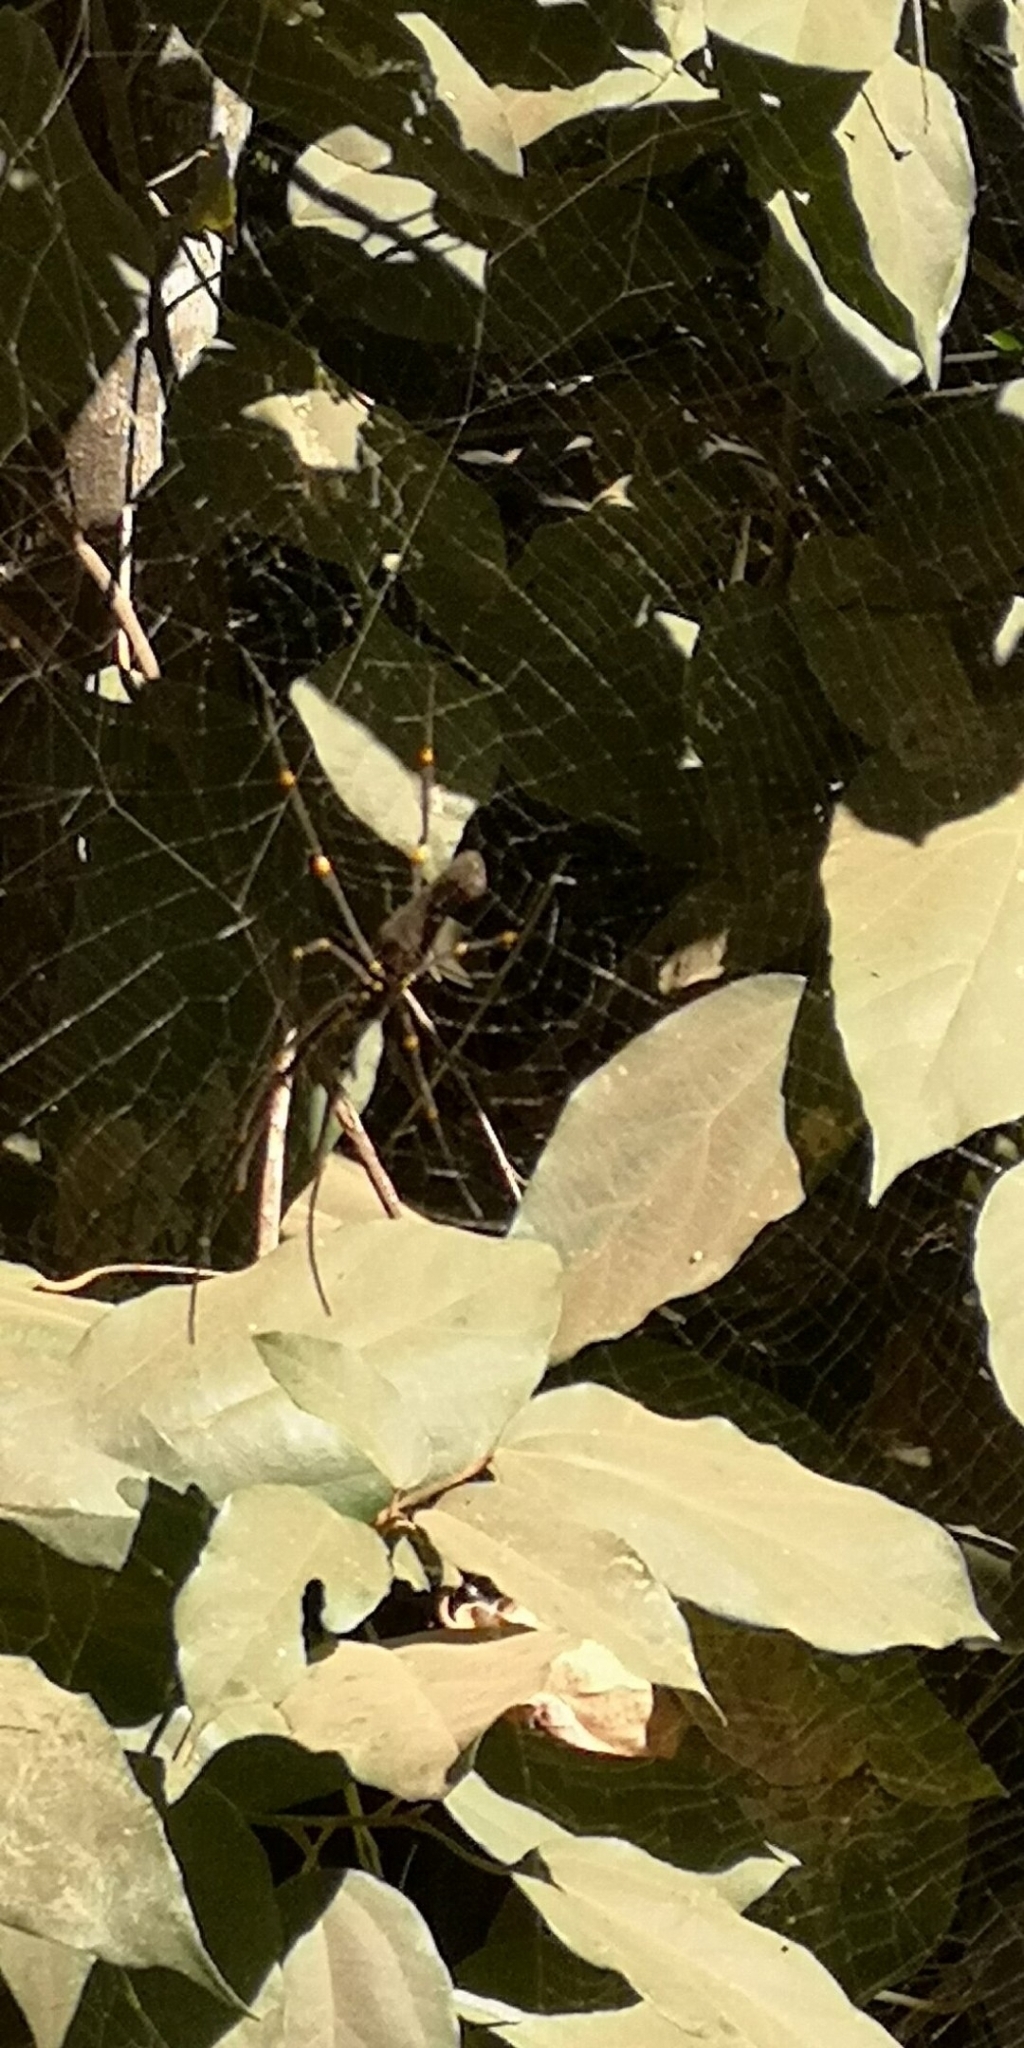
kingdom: Animalia
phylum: Arthropoda
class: Arachnida
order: Araneae
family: Araneidae
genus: Nephila
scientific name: Nephila pilipes
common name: Giant golden orb weaver
